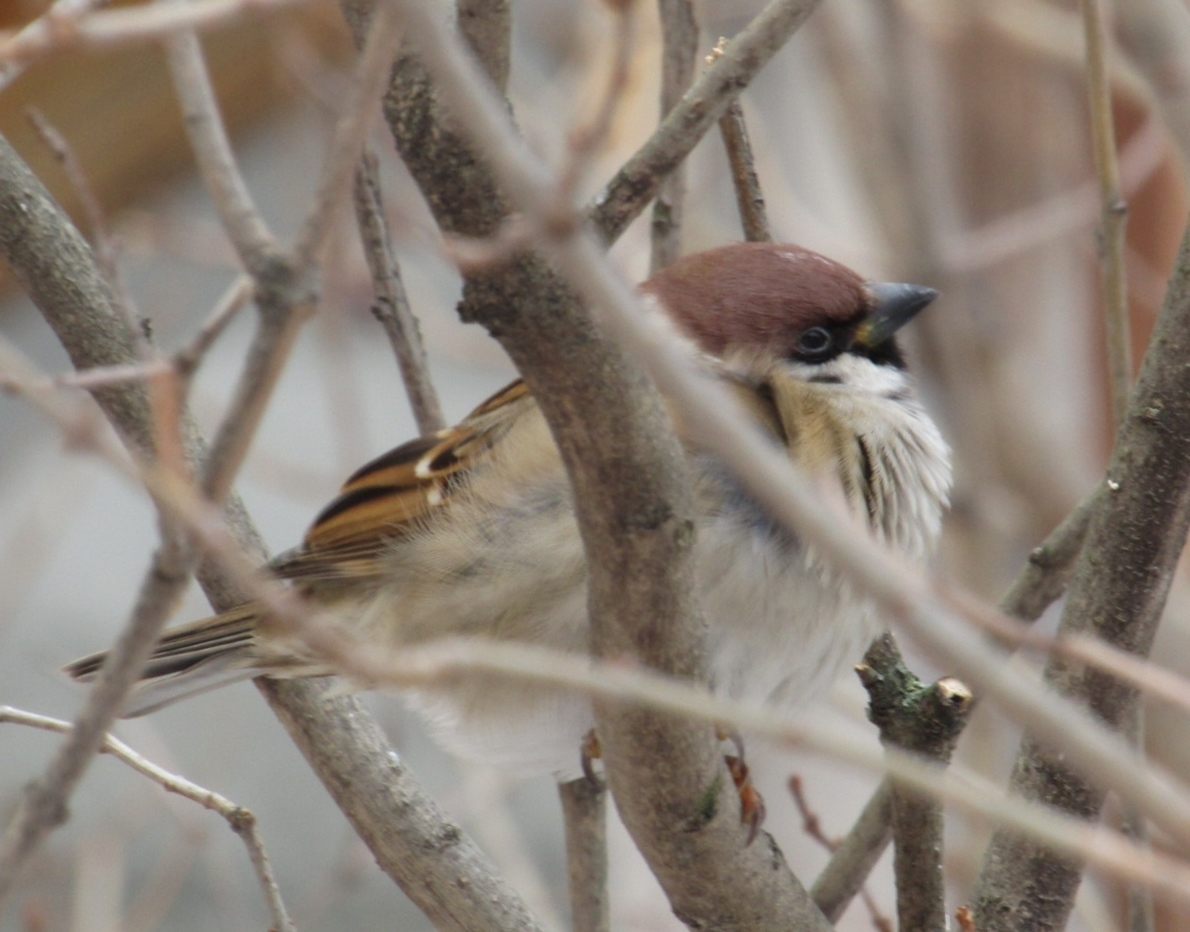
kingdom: Animalia
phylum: Chordata
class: Aves
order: Passeriformes
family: Passeridae
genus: Passer
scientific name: Passer montanus
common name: Eurasian tree sparrow
